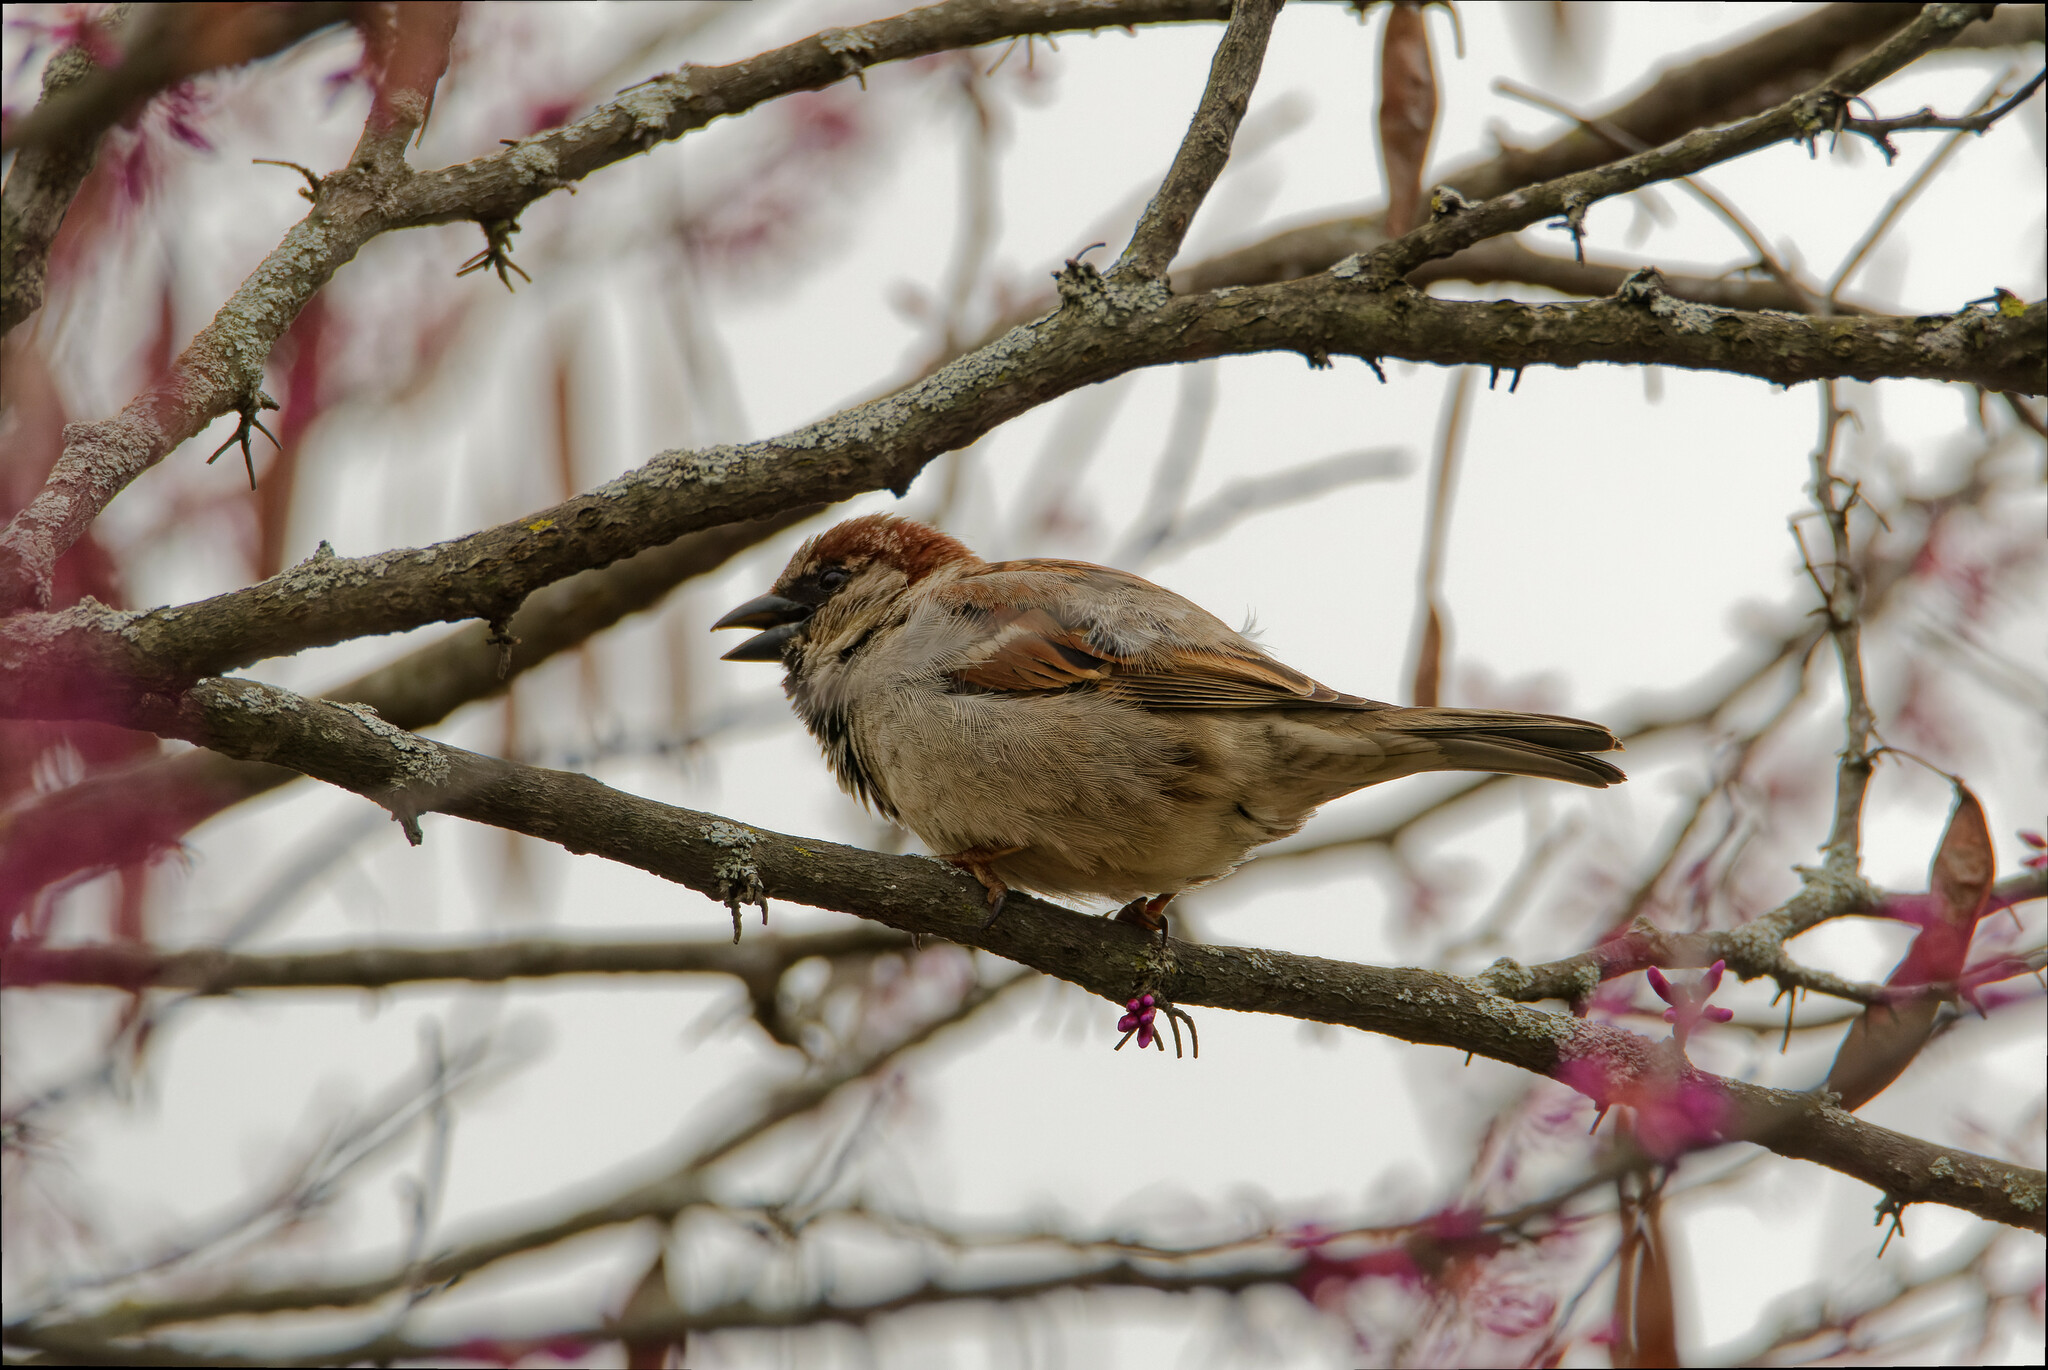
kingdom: Animalia
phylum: Chordata
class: Aves
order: Passeriformes
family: Passeridae
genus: Passer
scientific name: Passer domesticus
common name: House sparrow
